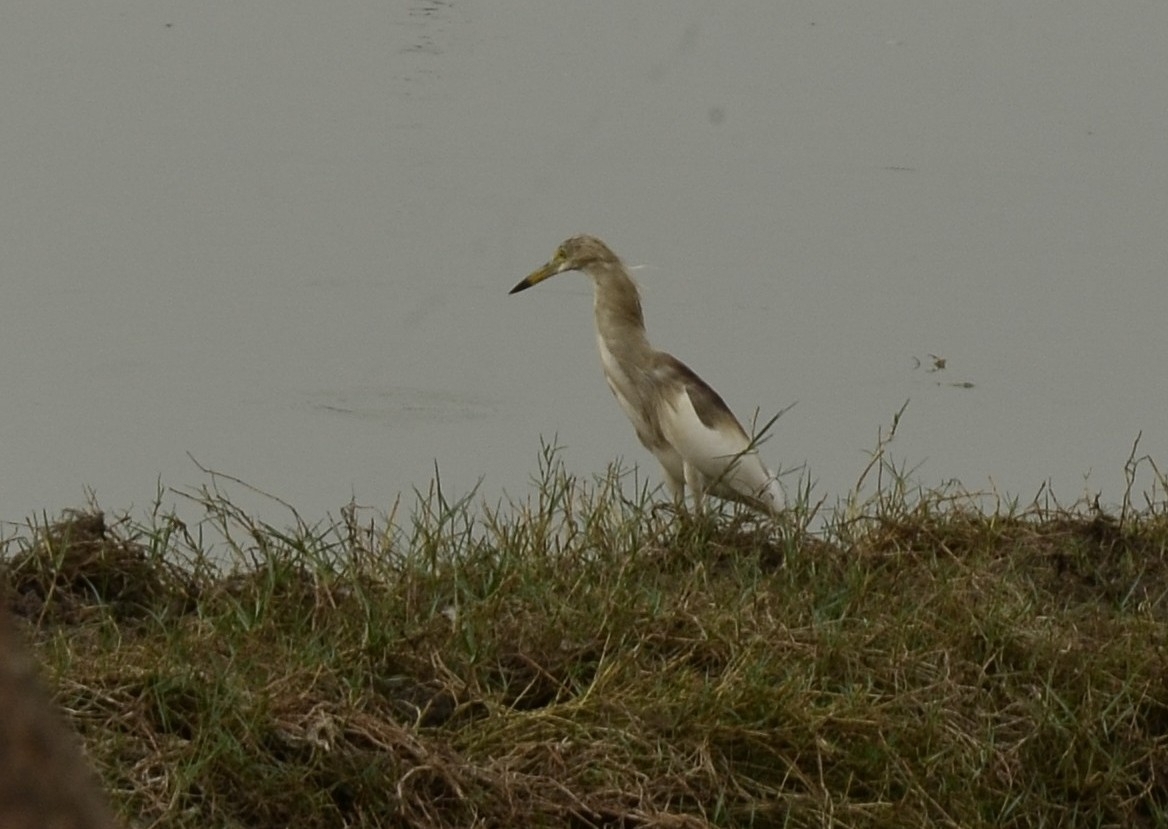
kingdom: Animalia
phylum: Chordata
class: Aves
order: Pelecaniformes
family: Ardeidae
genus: Ardeola
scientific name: Ardeola grayii
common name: Indian pond heron
